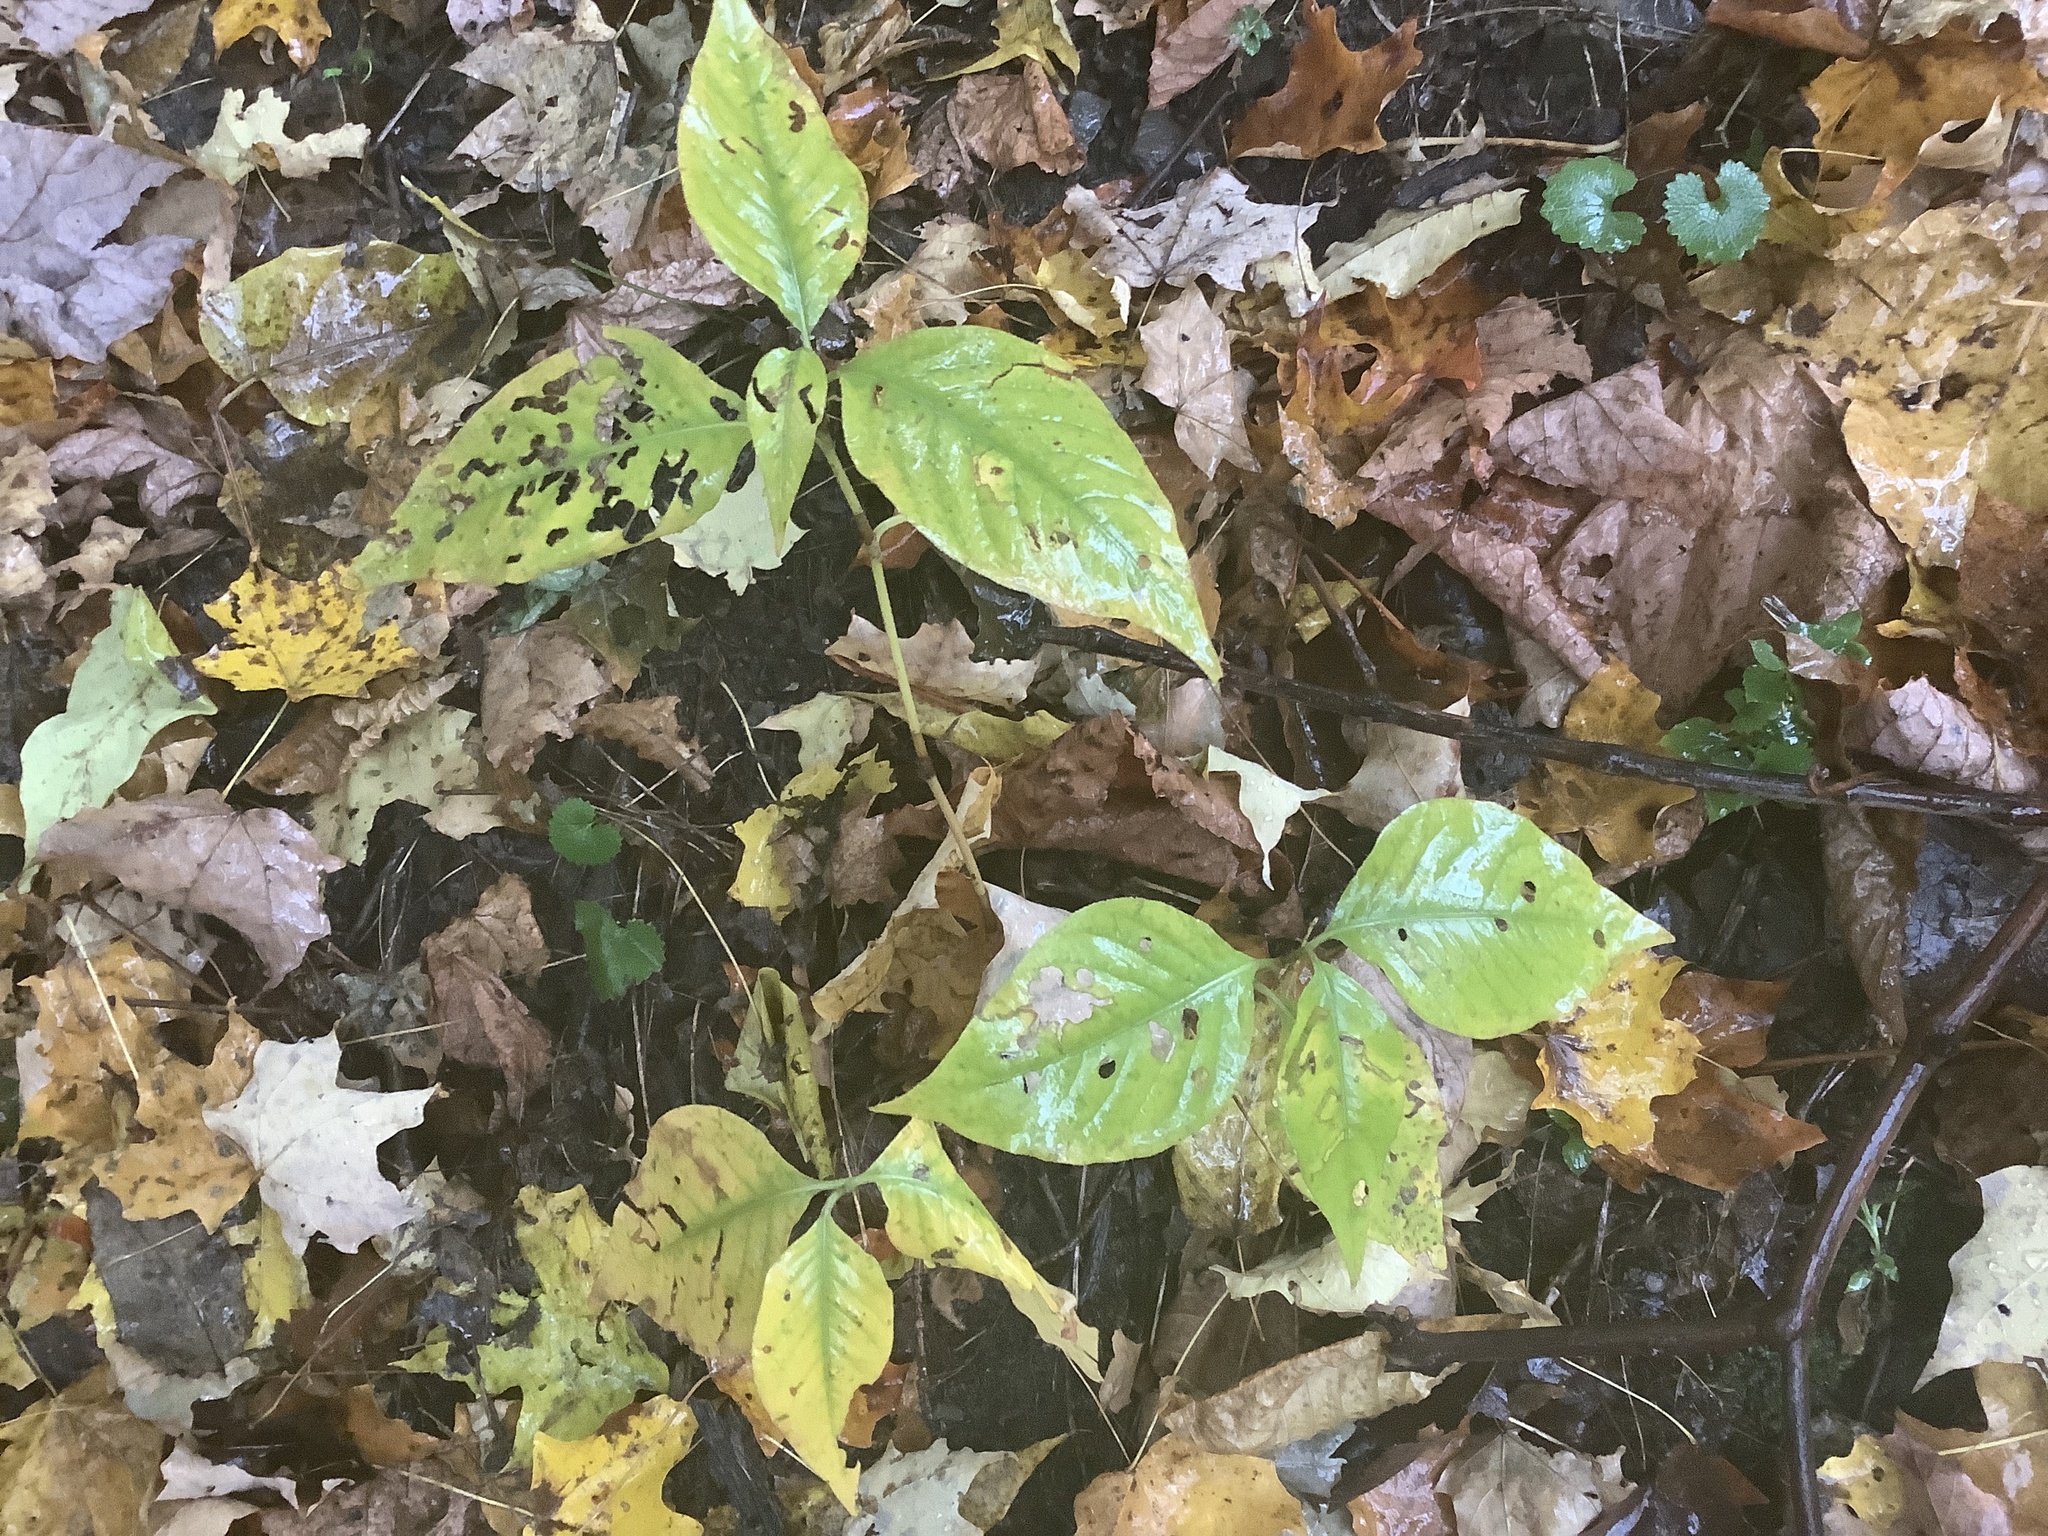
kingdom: Plantae
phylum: Tracheophyta
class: Magnoliopsida
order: Caryophyllales
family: Polygonaceae
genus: Persicaria
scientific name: Persicaria virginiana
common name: Jumpseed
